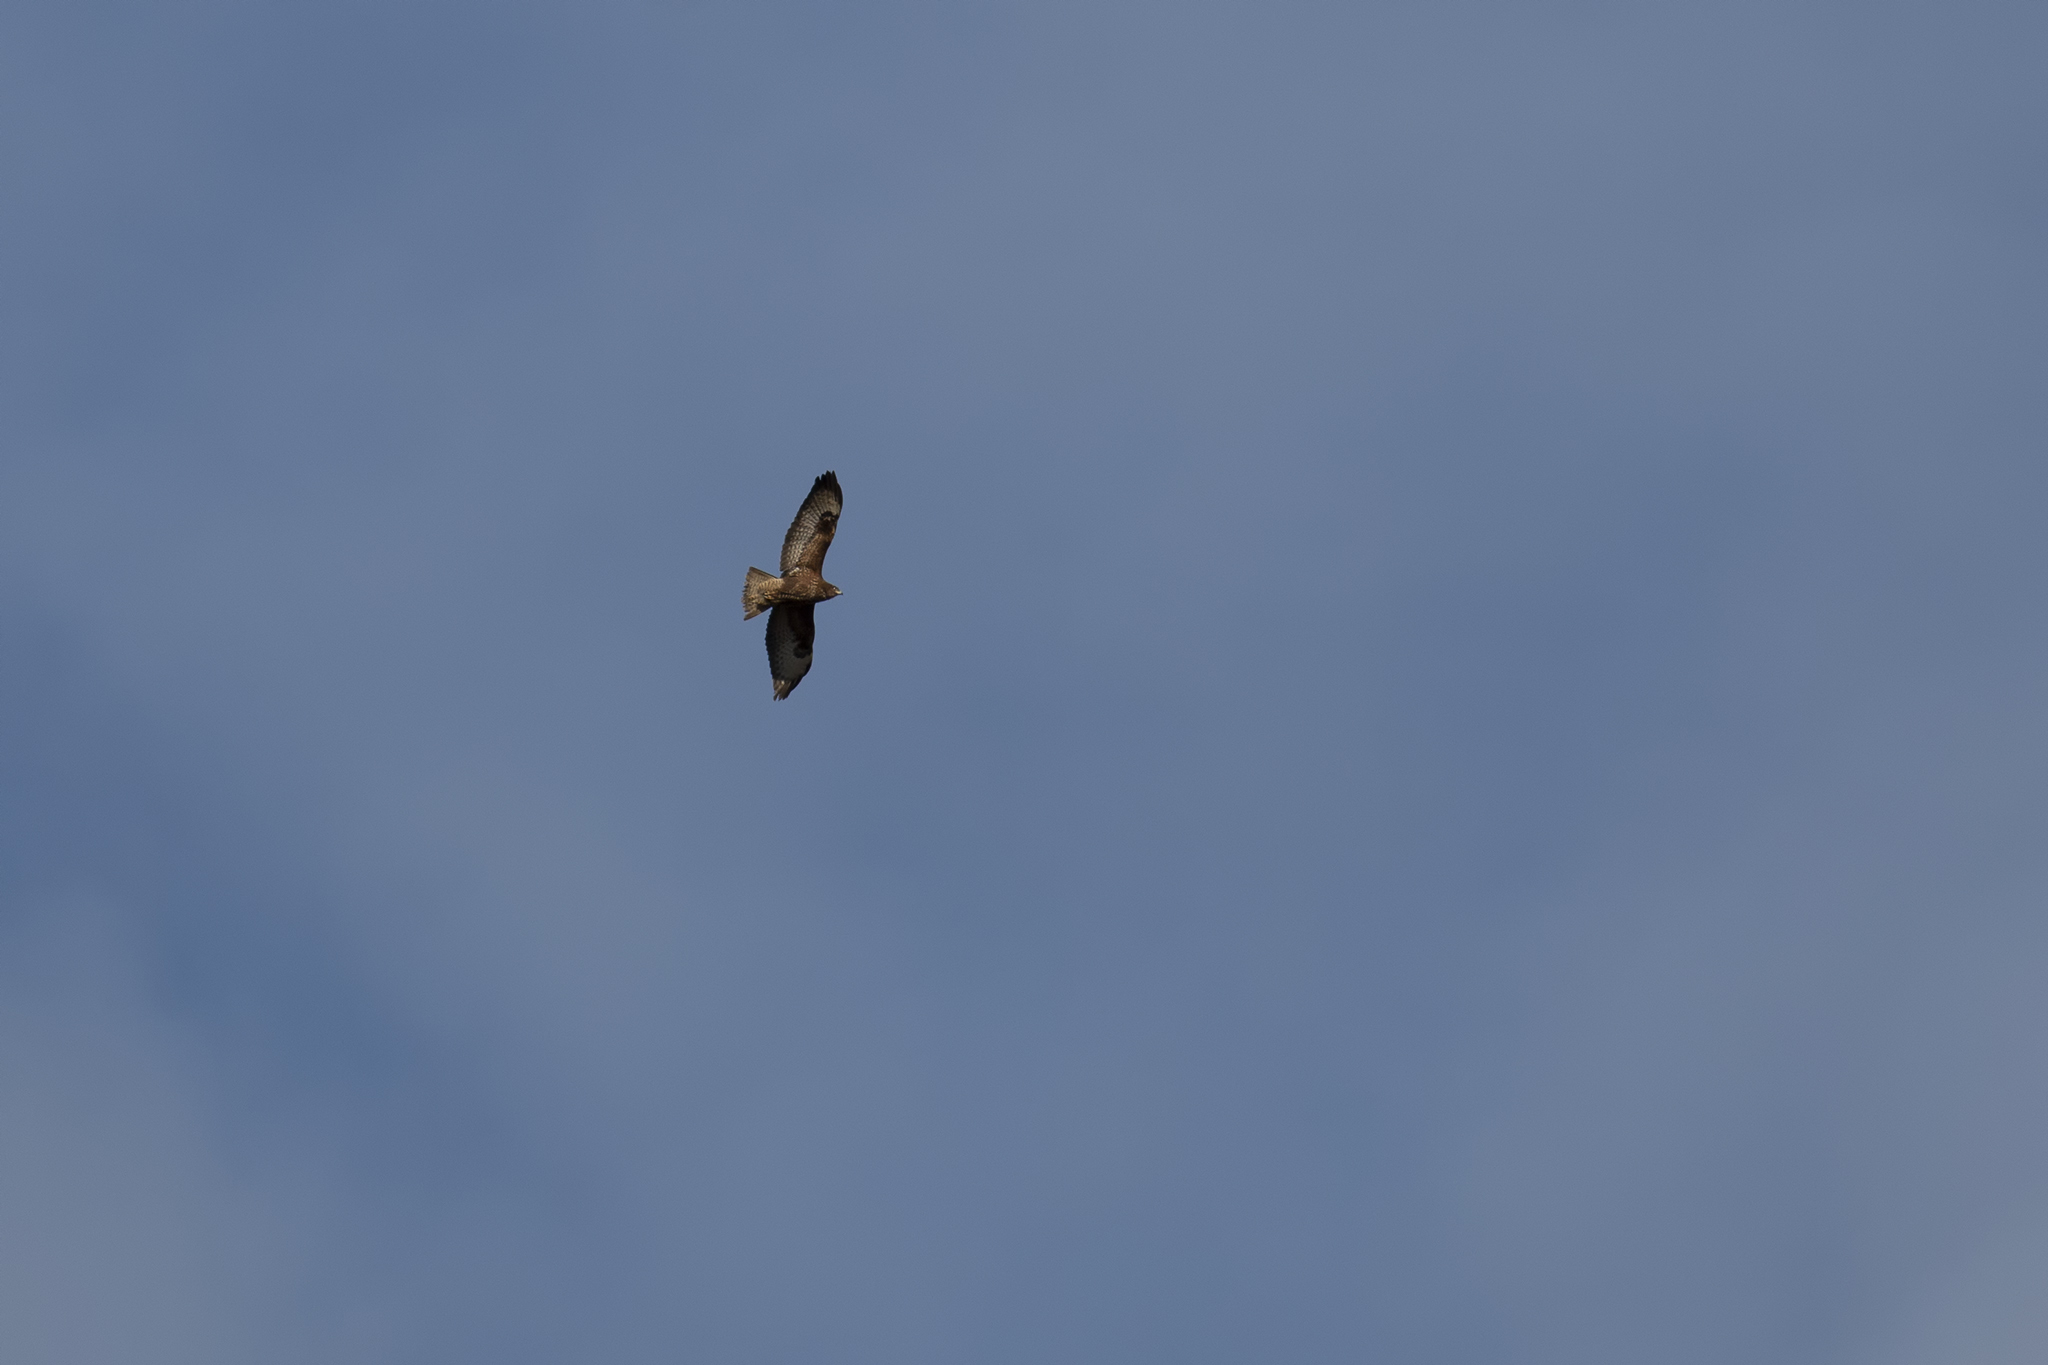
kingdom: Animalia
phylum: Chordata
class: Aves
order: Accipitriformes
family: Accipitridae
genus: Buteo
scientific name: Buteo buteo
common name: Common buzzard
